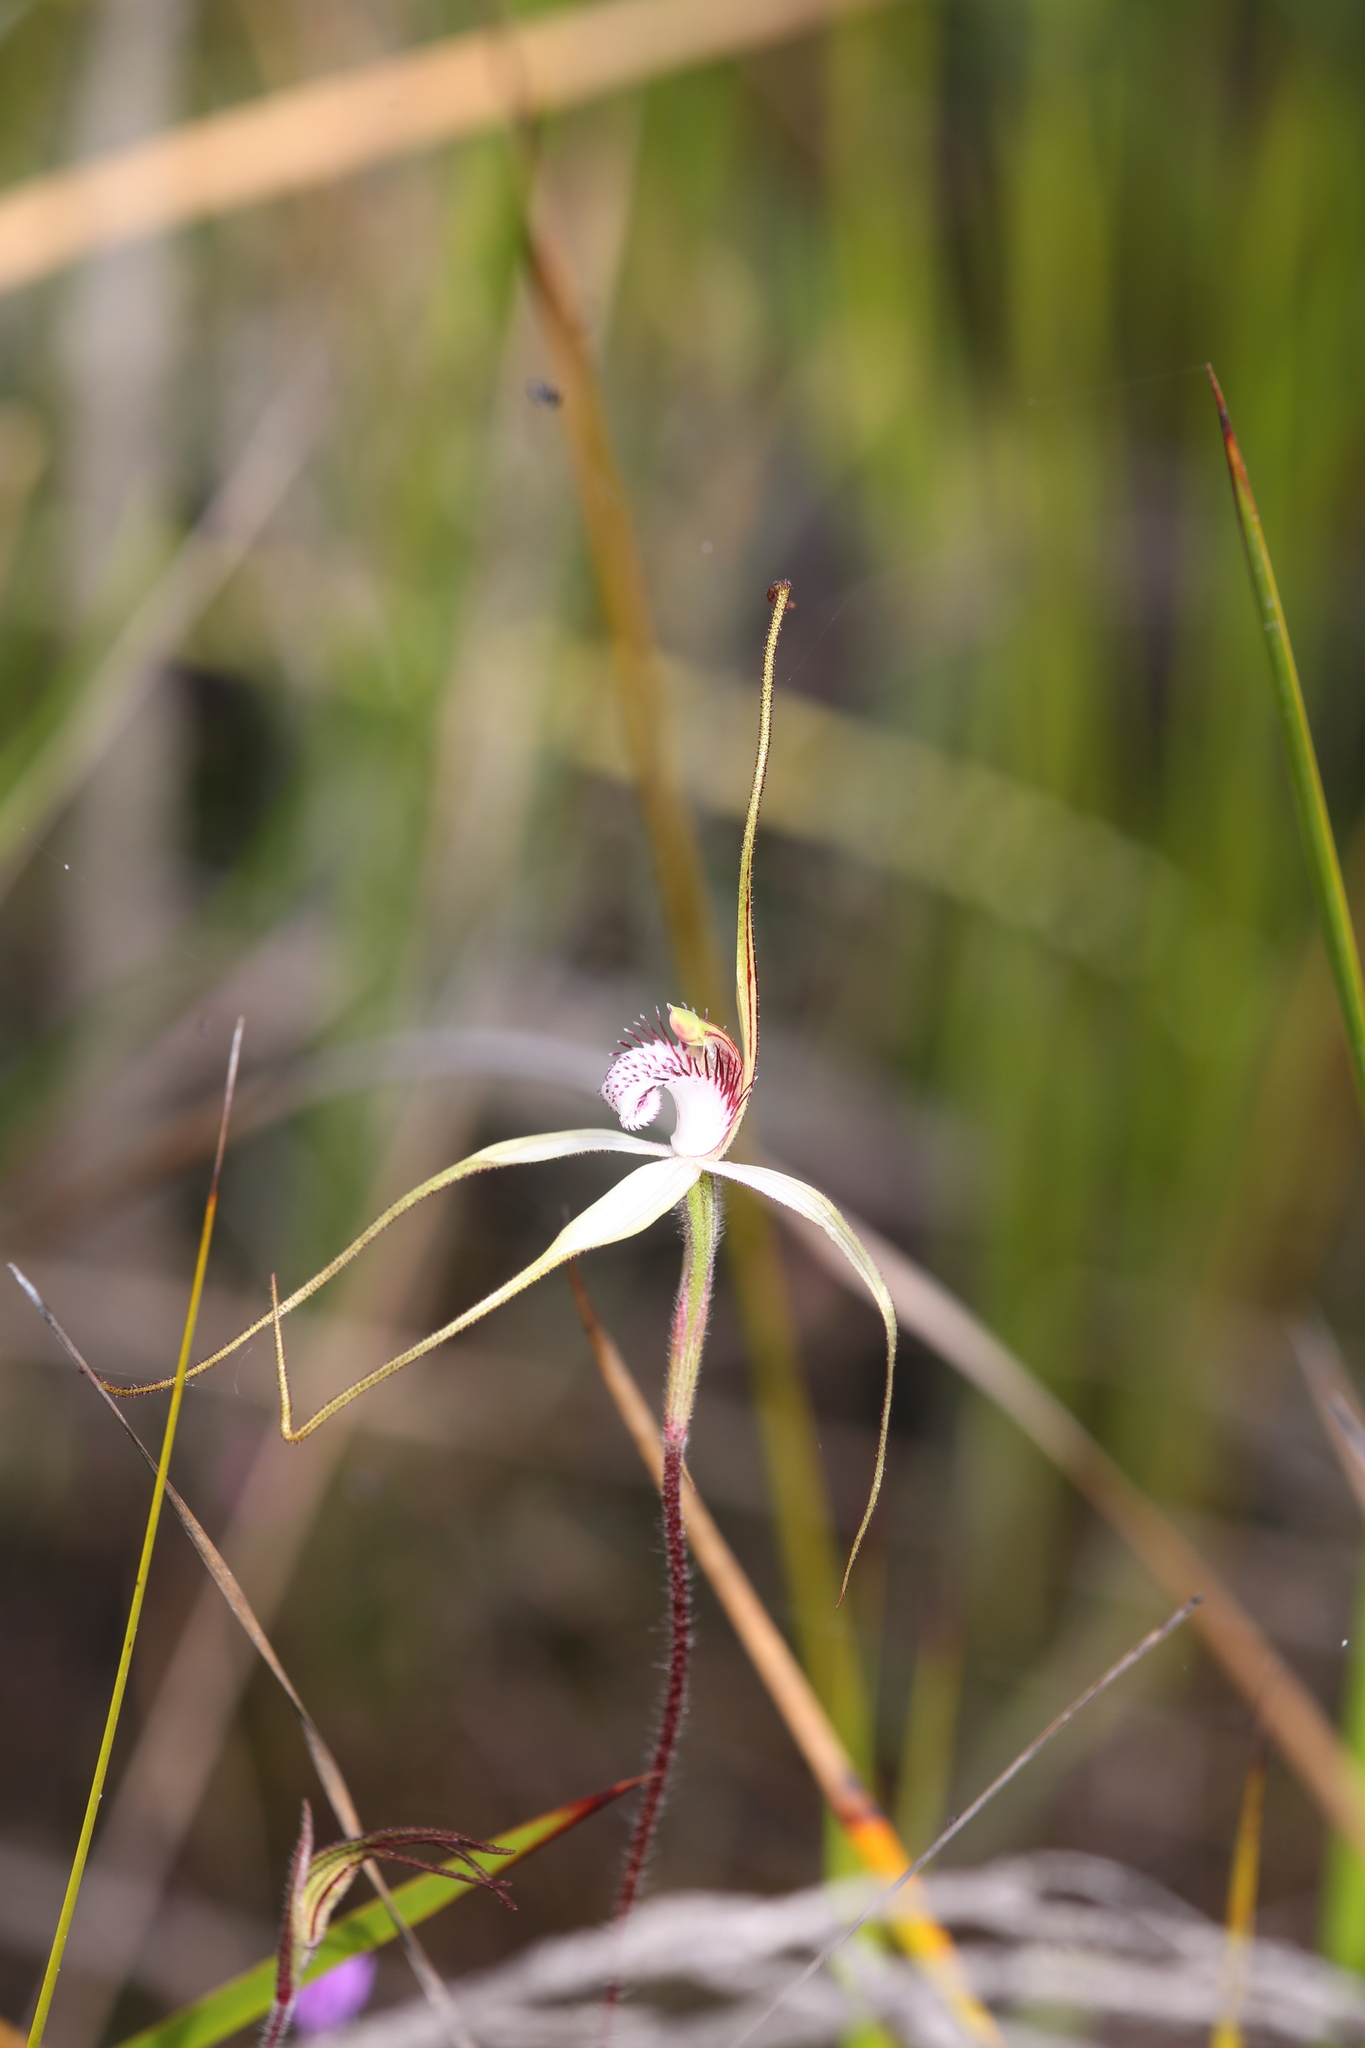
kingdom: Plantae
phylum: Tracheophyta
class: Liliopsida
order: Asparagales
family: Orchidaceae
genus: Caladenia
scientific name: Caladenia longicauda
